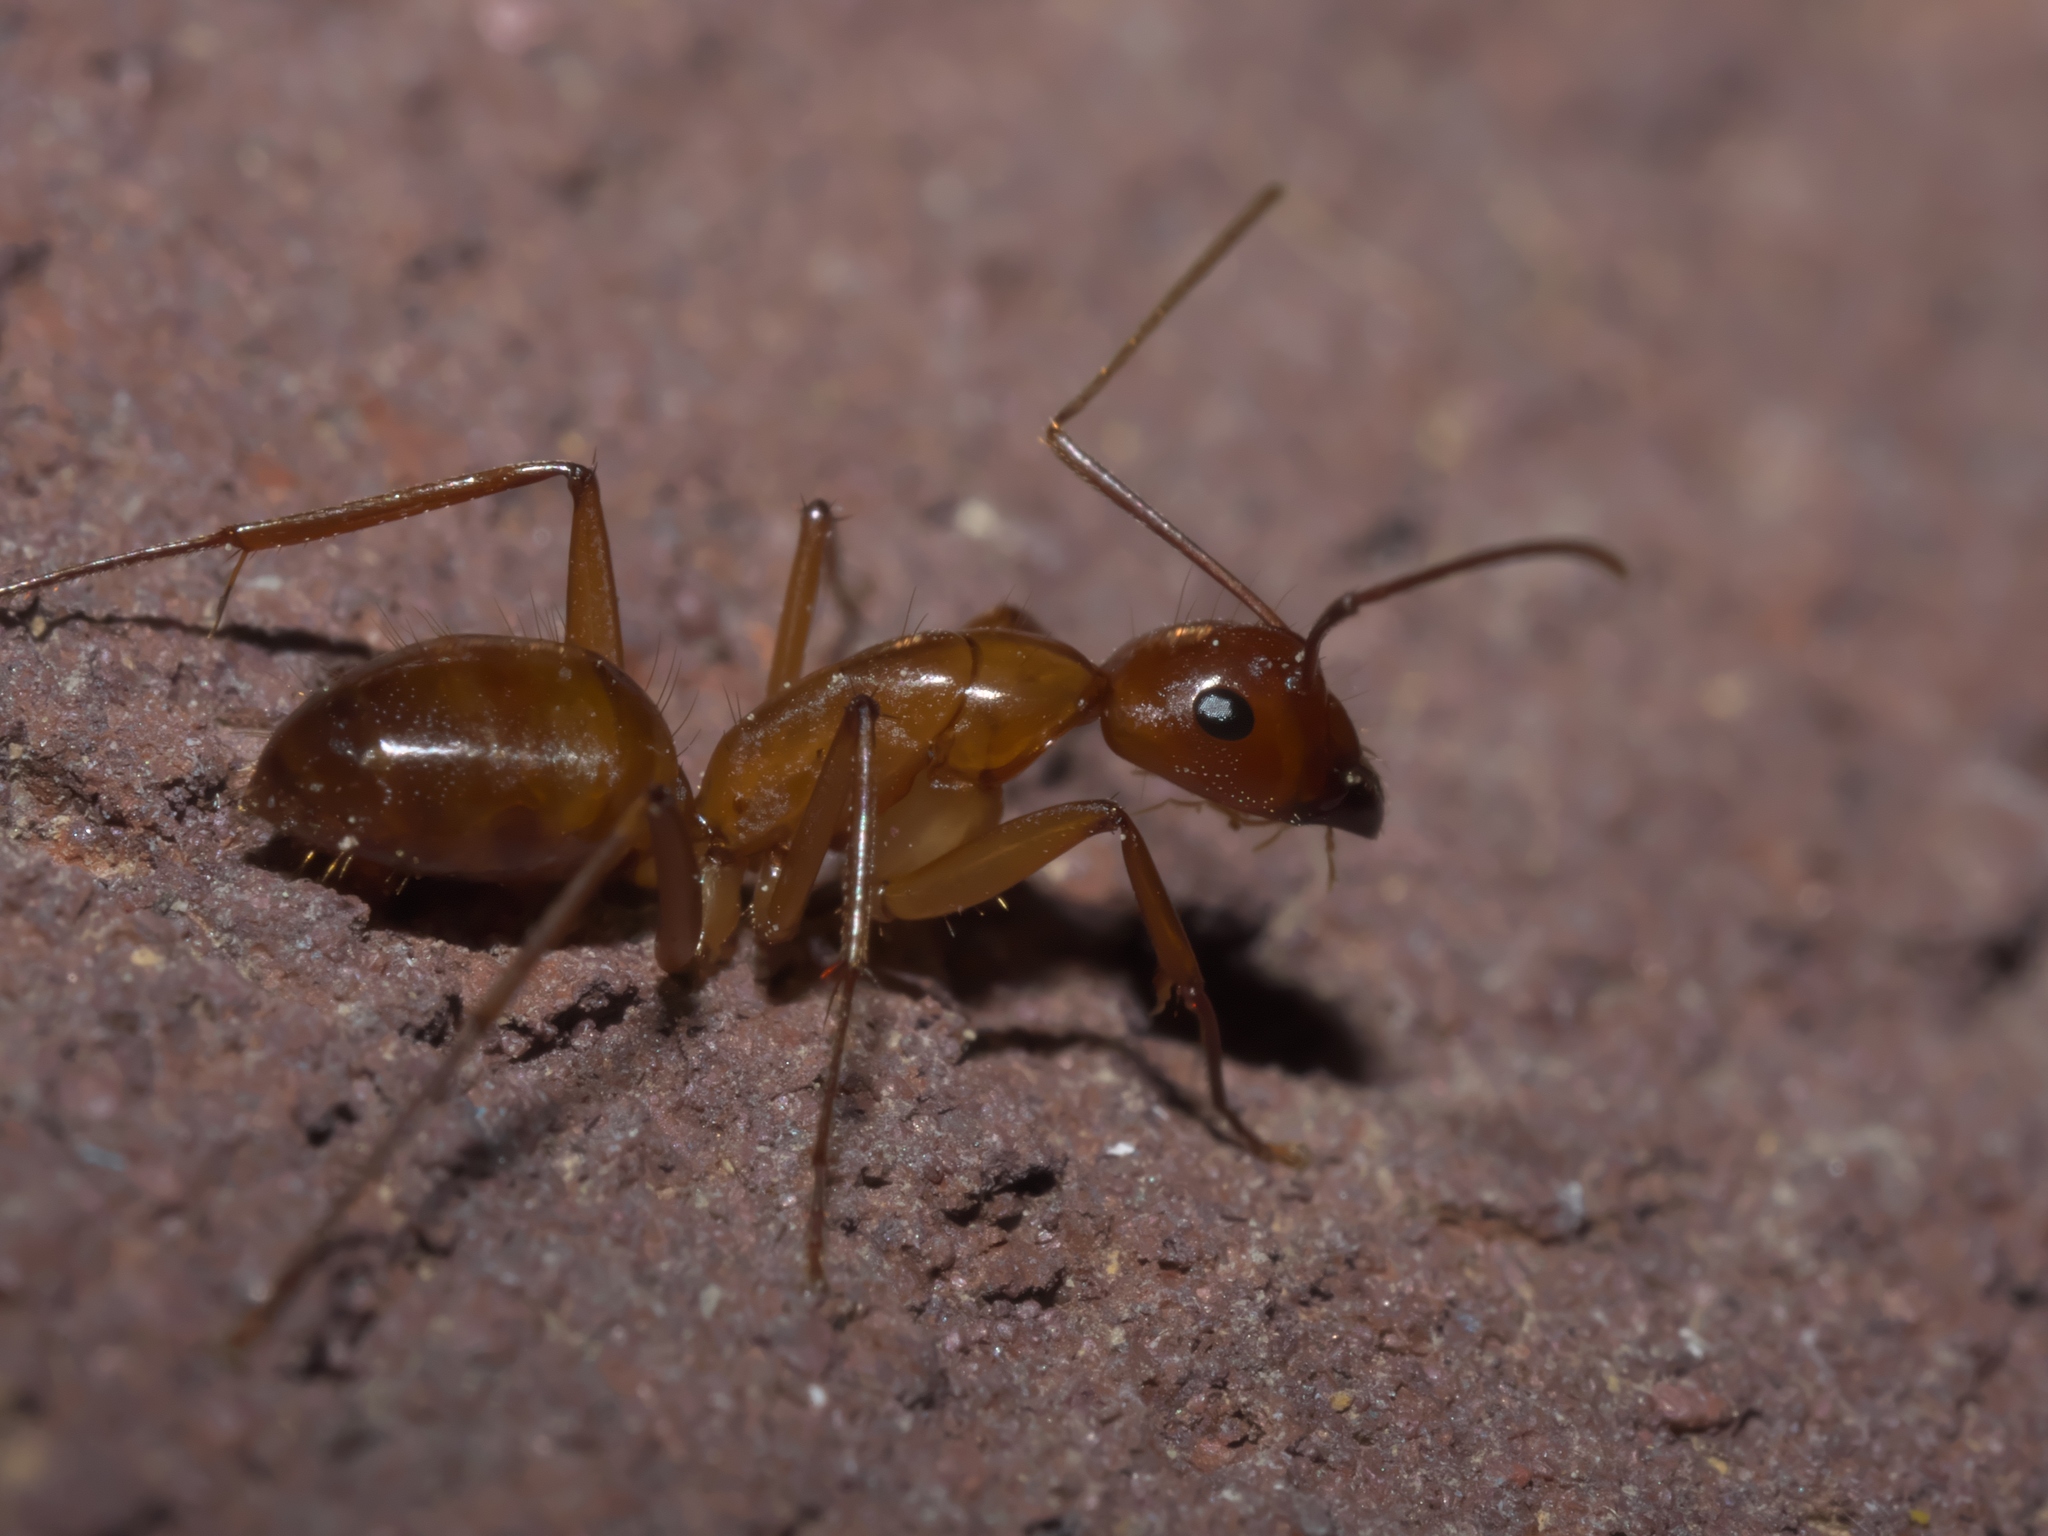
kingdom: Animalia
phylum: Arthropoda
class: Insecta
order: Hymenoptera
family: Formicidae
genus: Camponotus
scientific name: Camponotus castaneus
